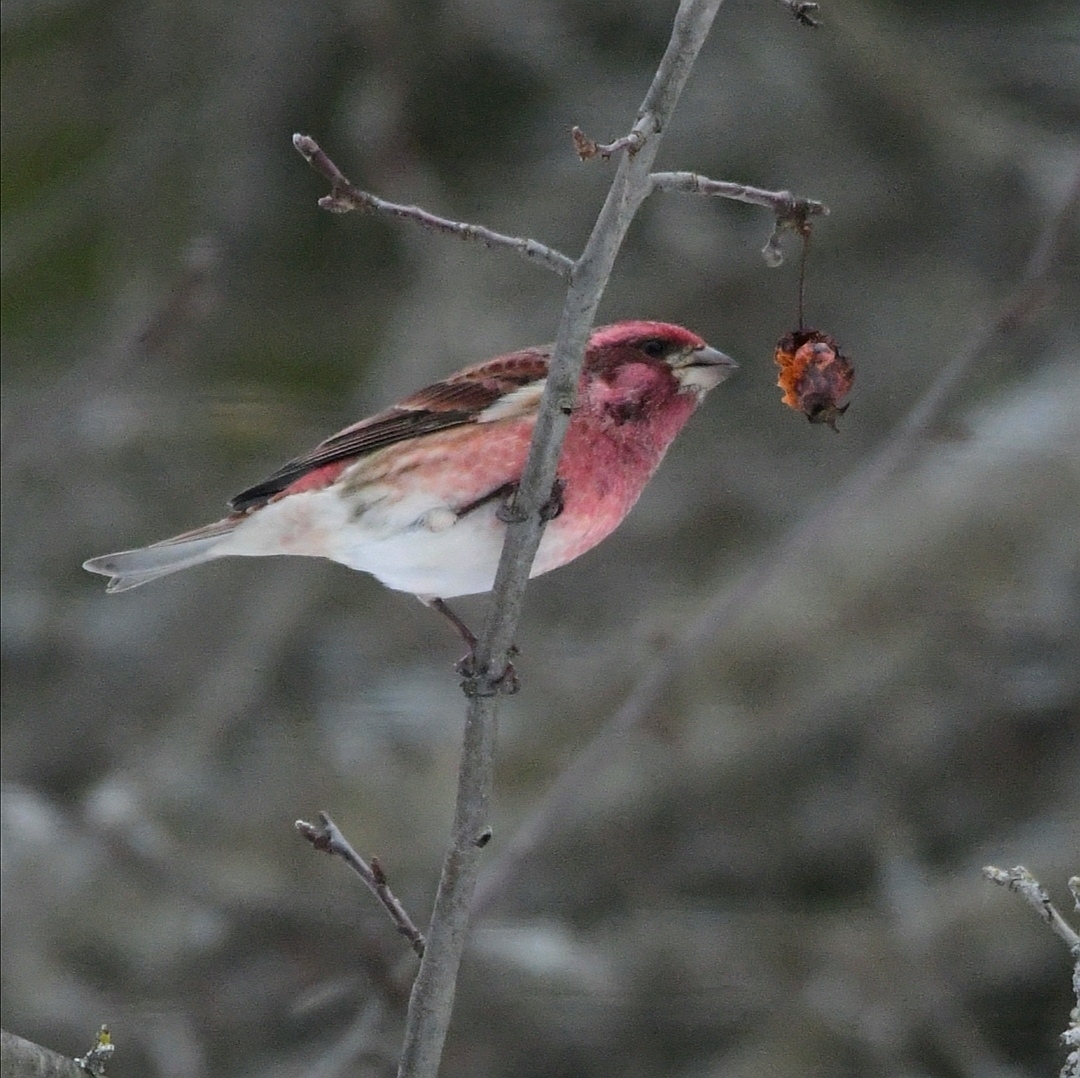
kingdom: Animalia
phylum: Chordata
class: Aves
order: Passeriformes
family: Fringillidae
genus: Haemorhous
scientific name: Haemorhous purpureus
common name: Purple finch
